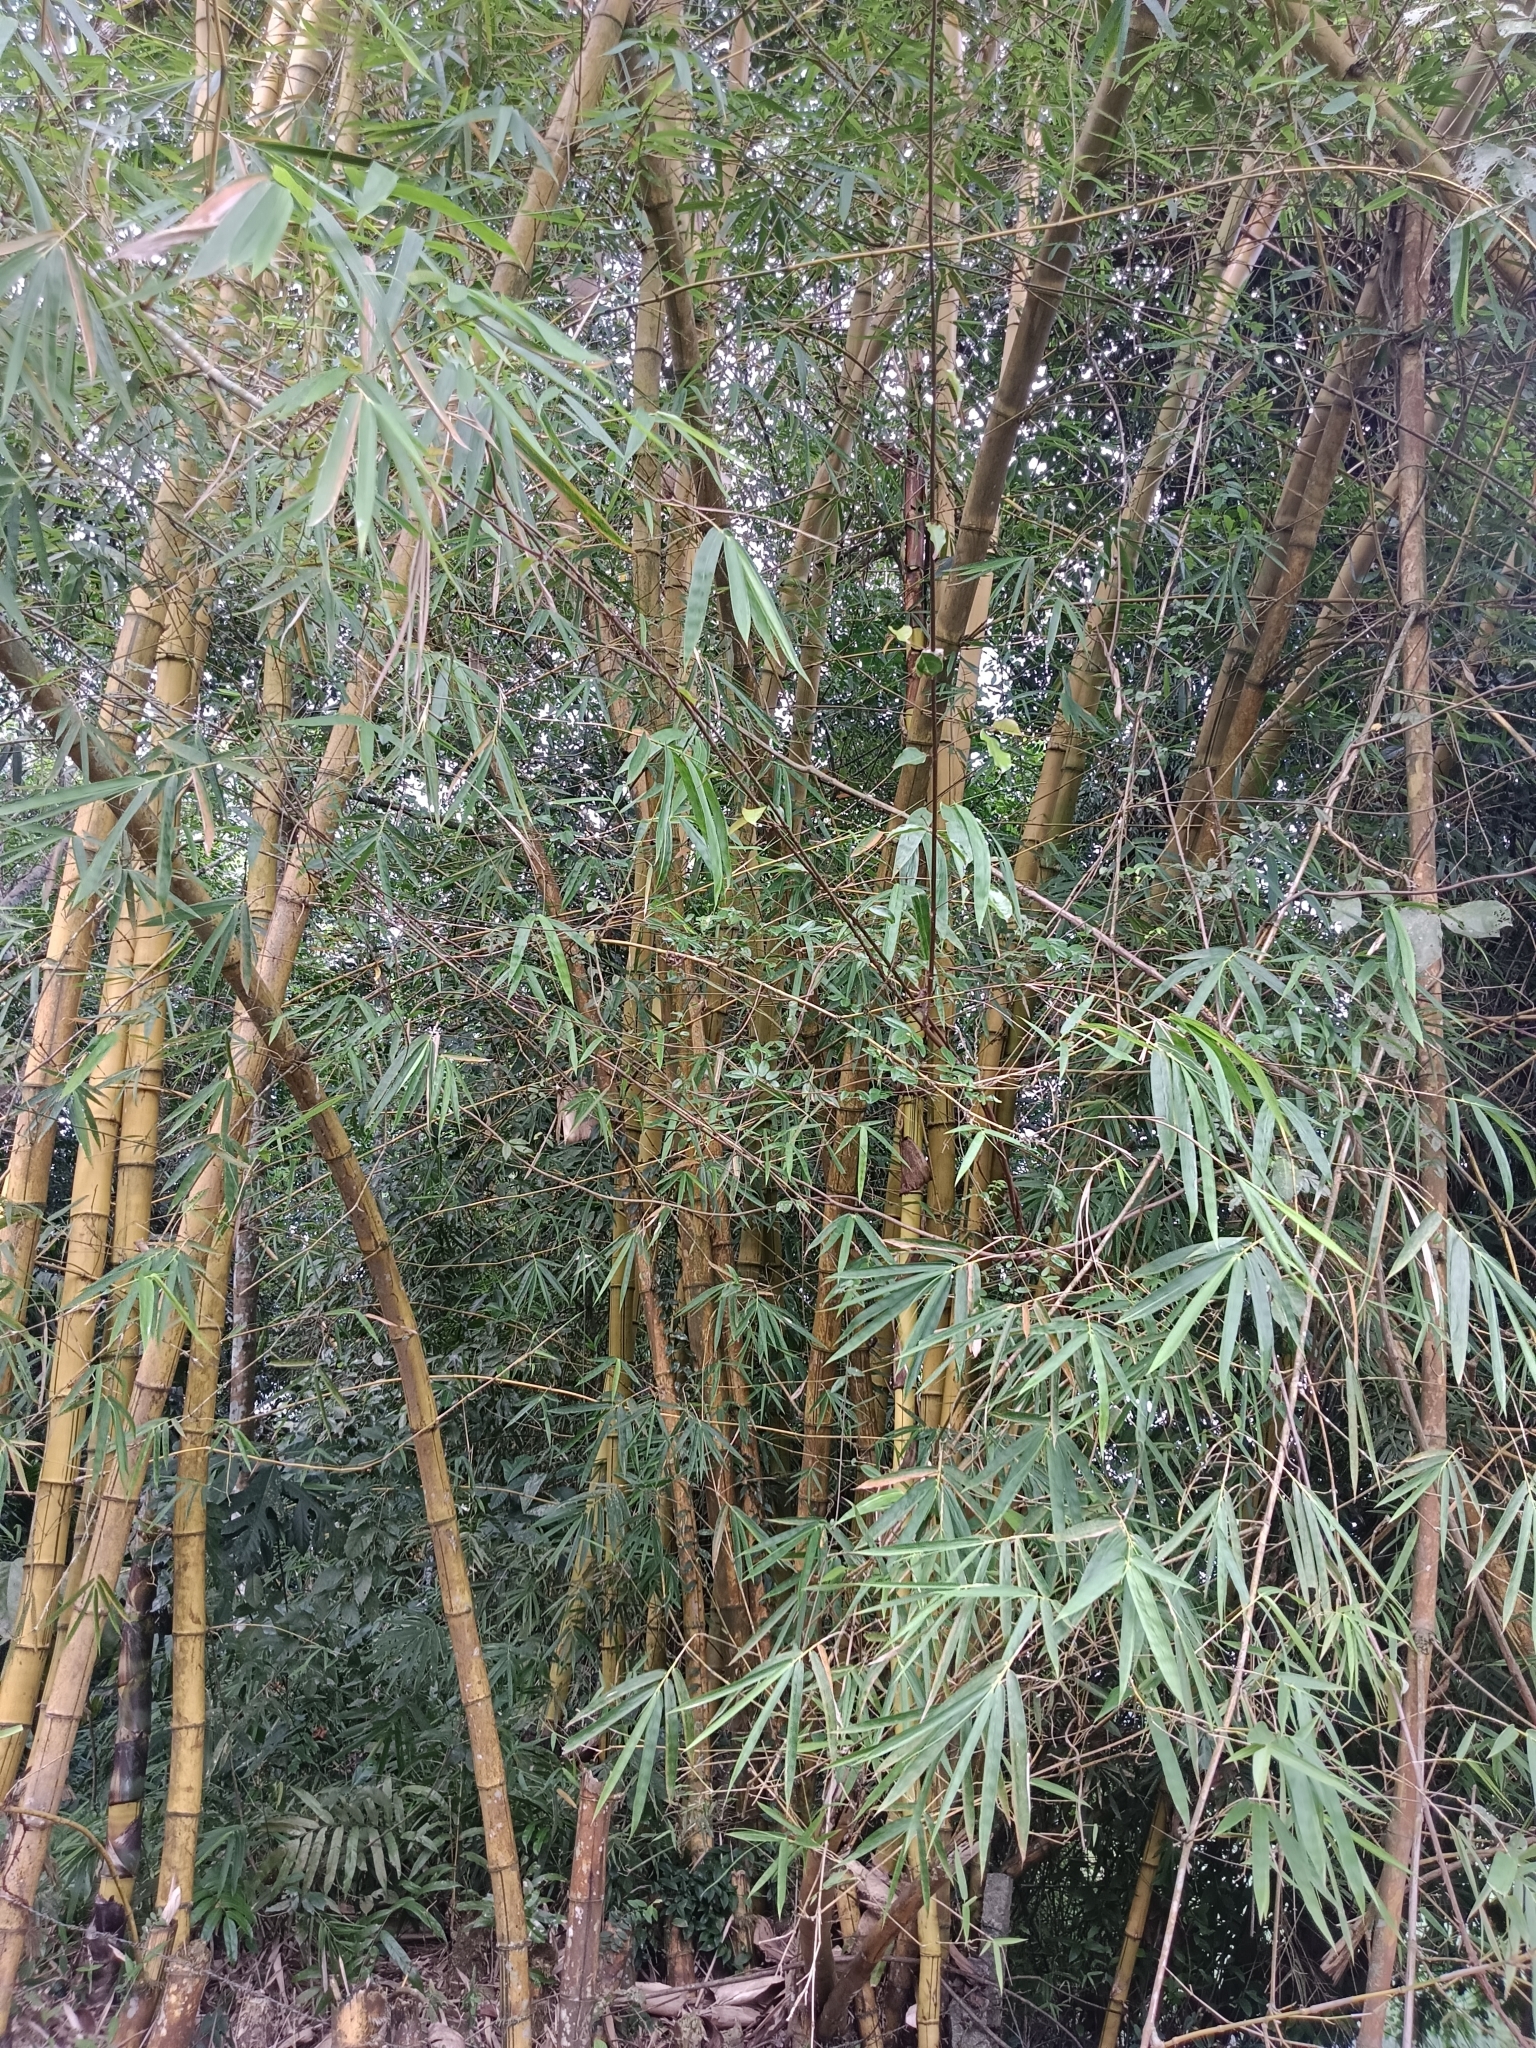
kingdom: Plantae
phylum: Tracheophyta
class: Liliopsida
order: Poales
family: Poaceae
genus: Bambusa
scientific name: Bambusa vulgaris
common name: Common bamboo
